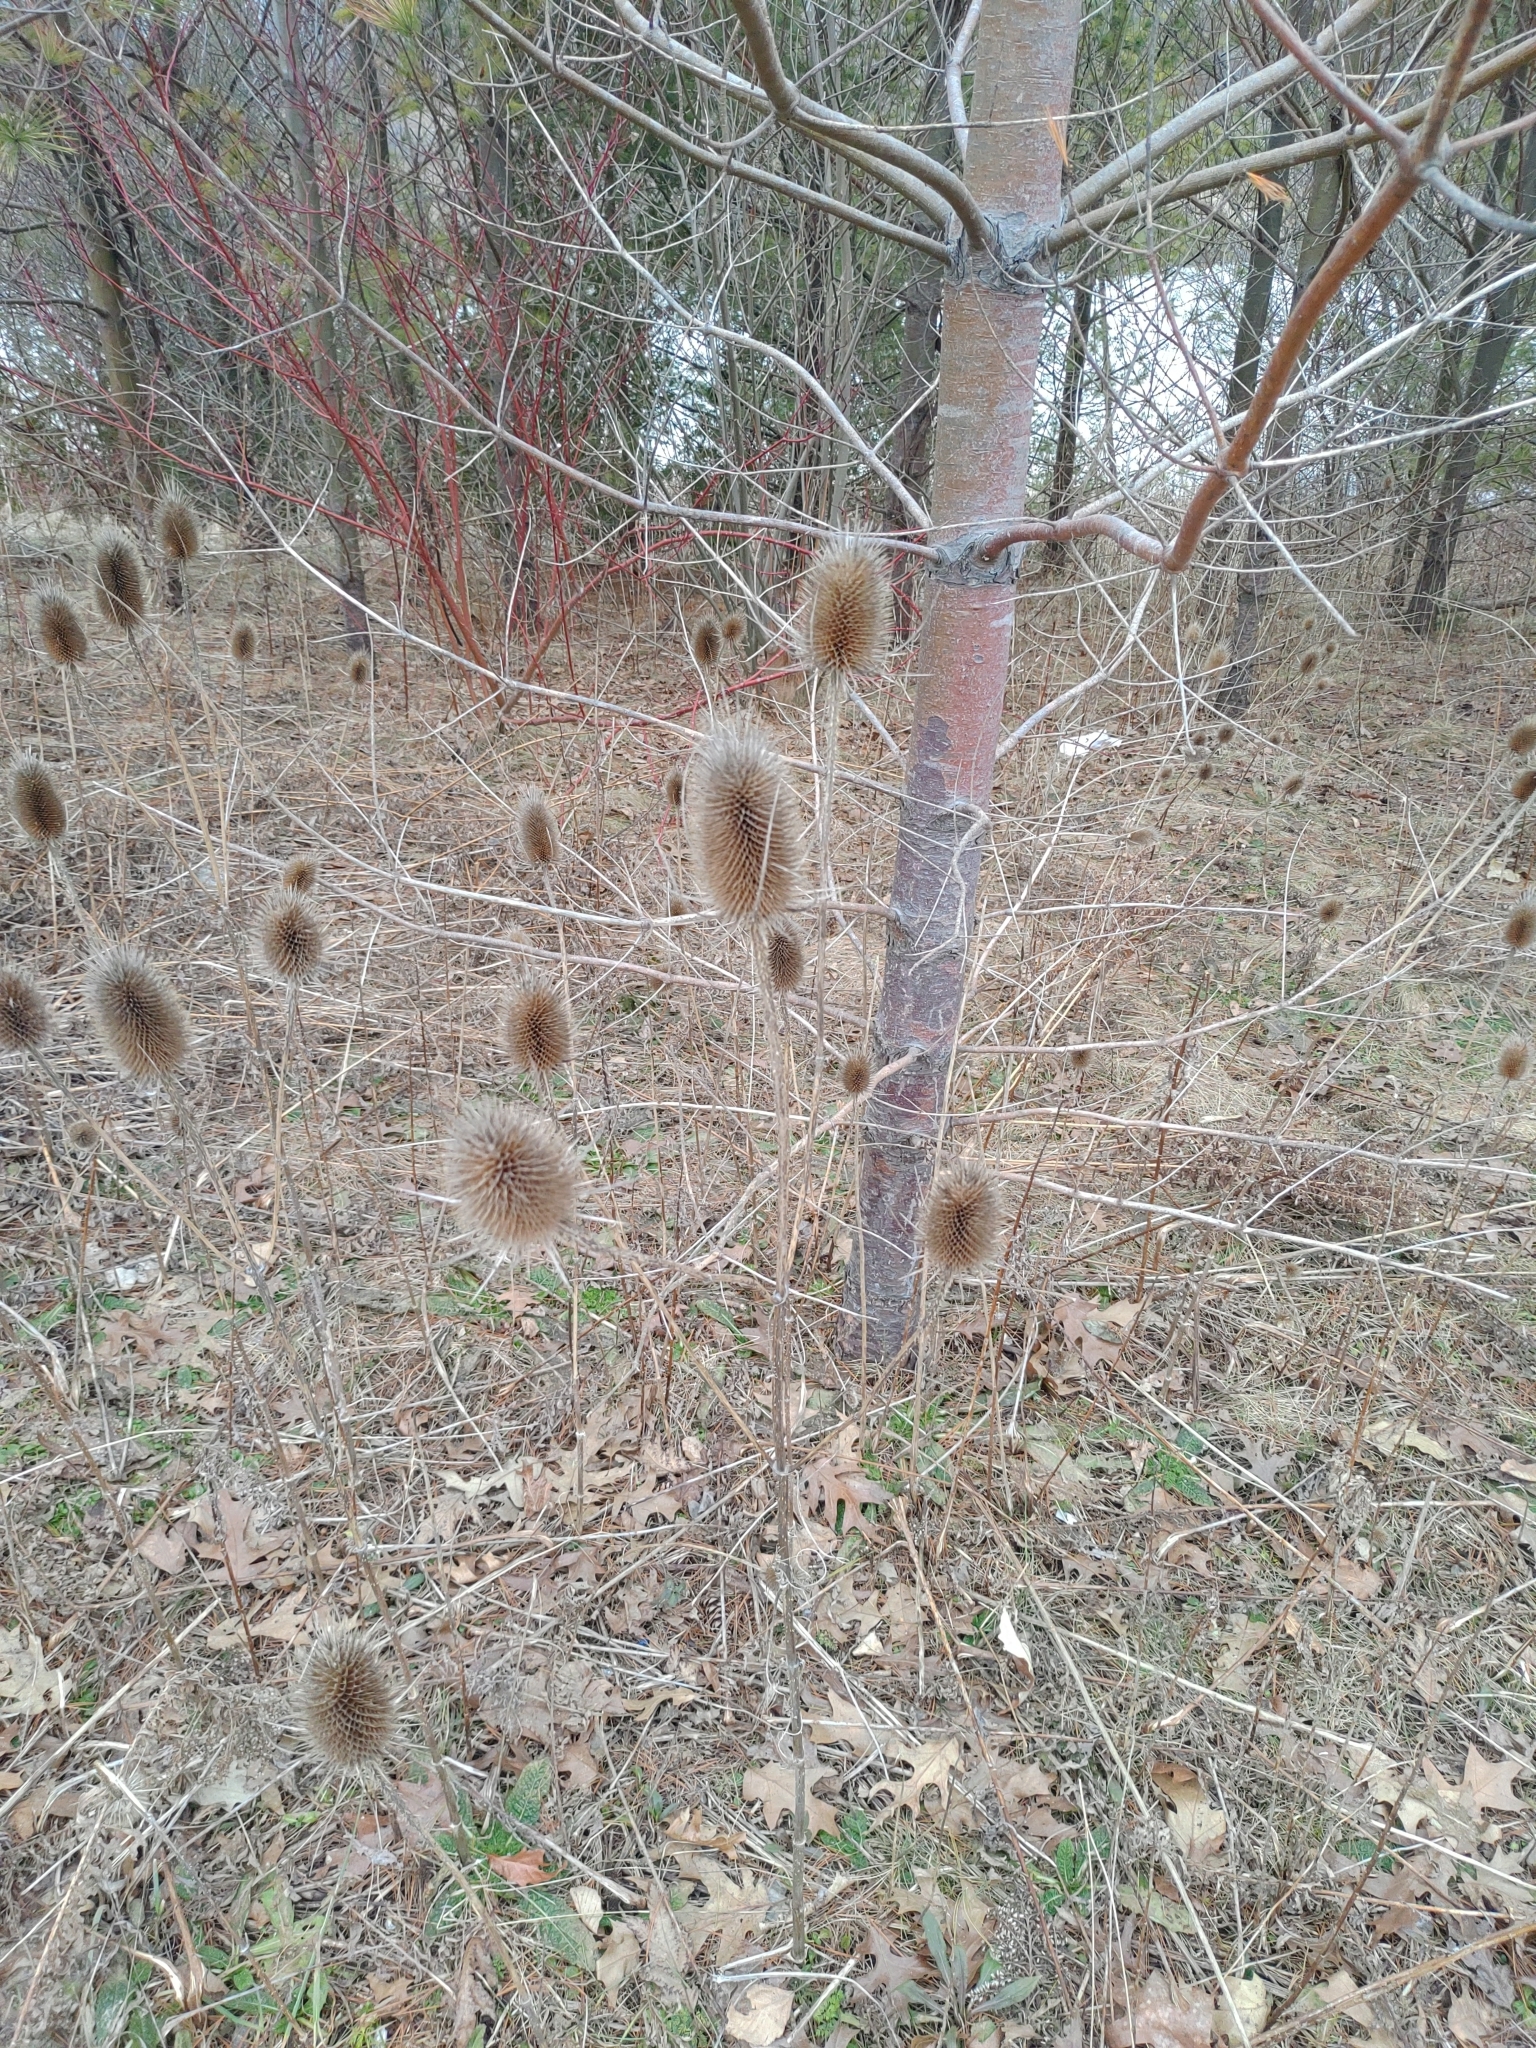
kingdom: Plantae
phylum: Tracheophyta
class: Magnoliopsida
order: Dipsacales
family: Caprifoliaceae
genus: Dipsacus
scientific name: Dipsacus fullonum
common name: Teasel
